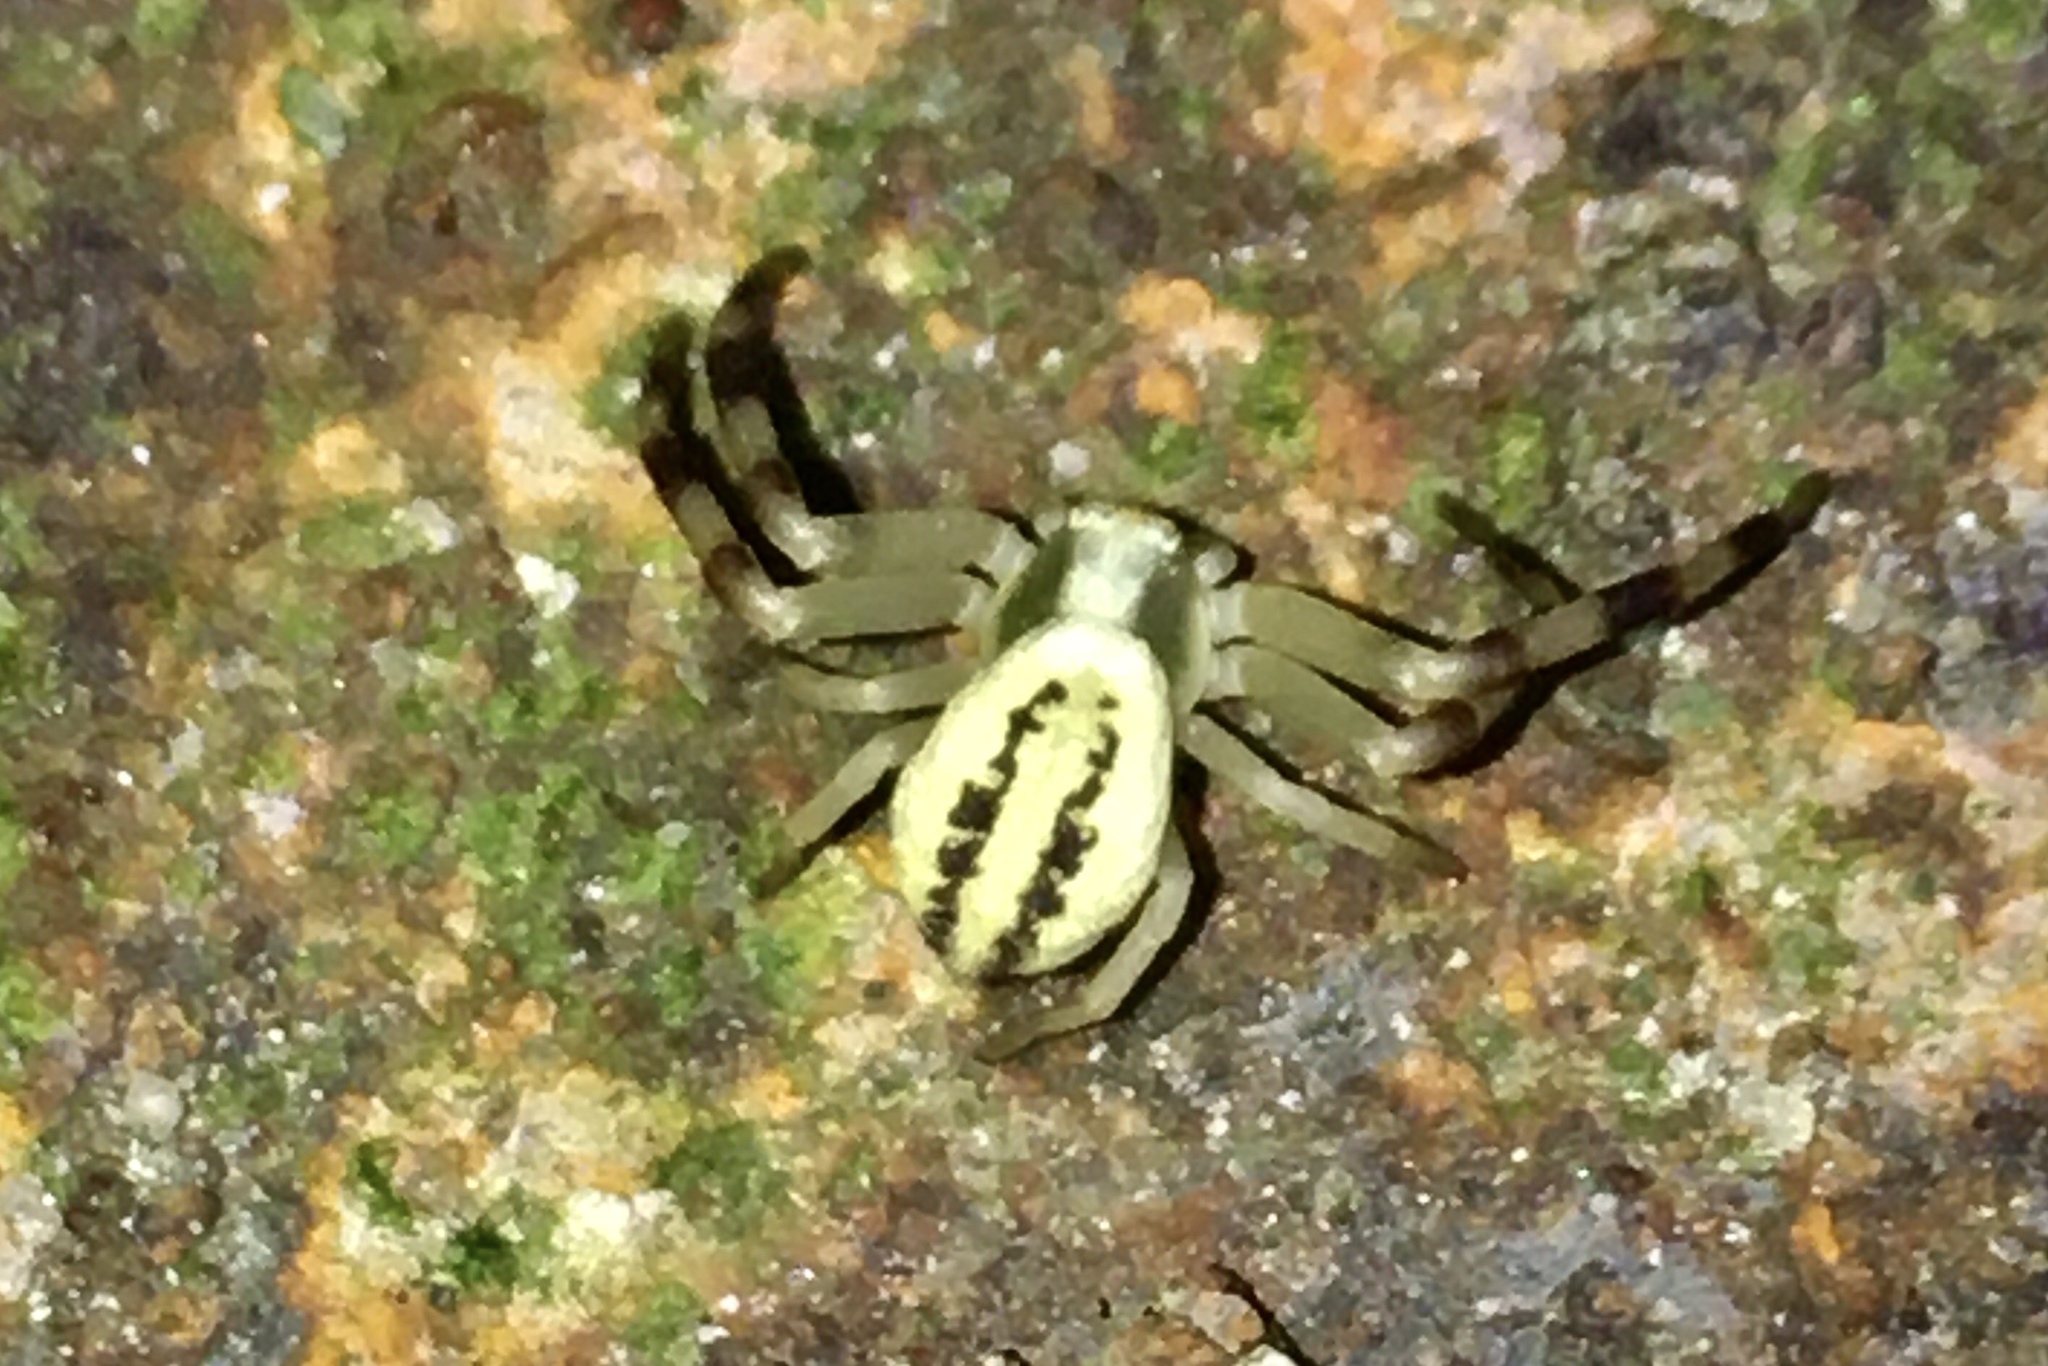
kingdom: Animalia
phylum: Arthropoda
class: Arachnida
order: Araneae
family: Thomisidae
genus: Misumena
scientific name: Misumena vatia
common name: Goldenrod crab spider
